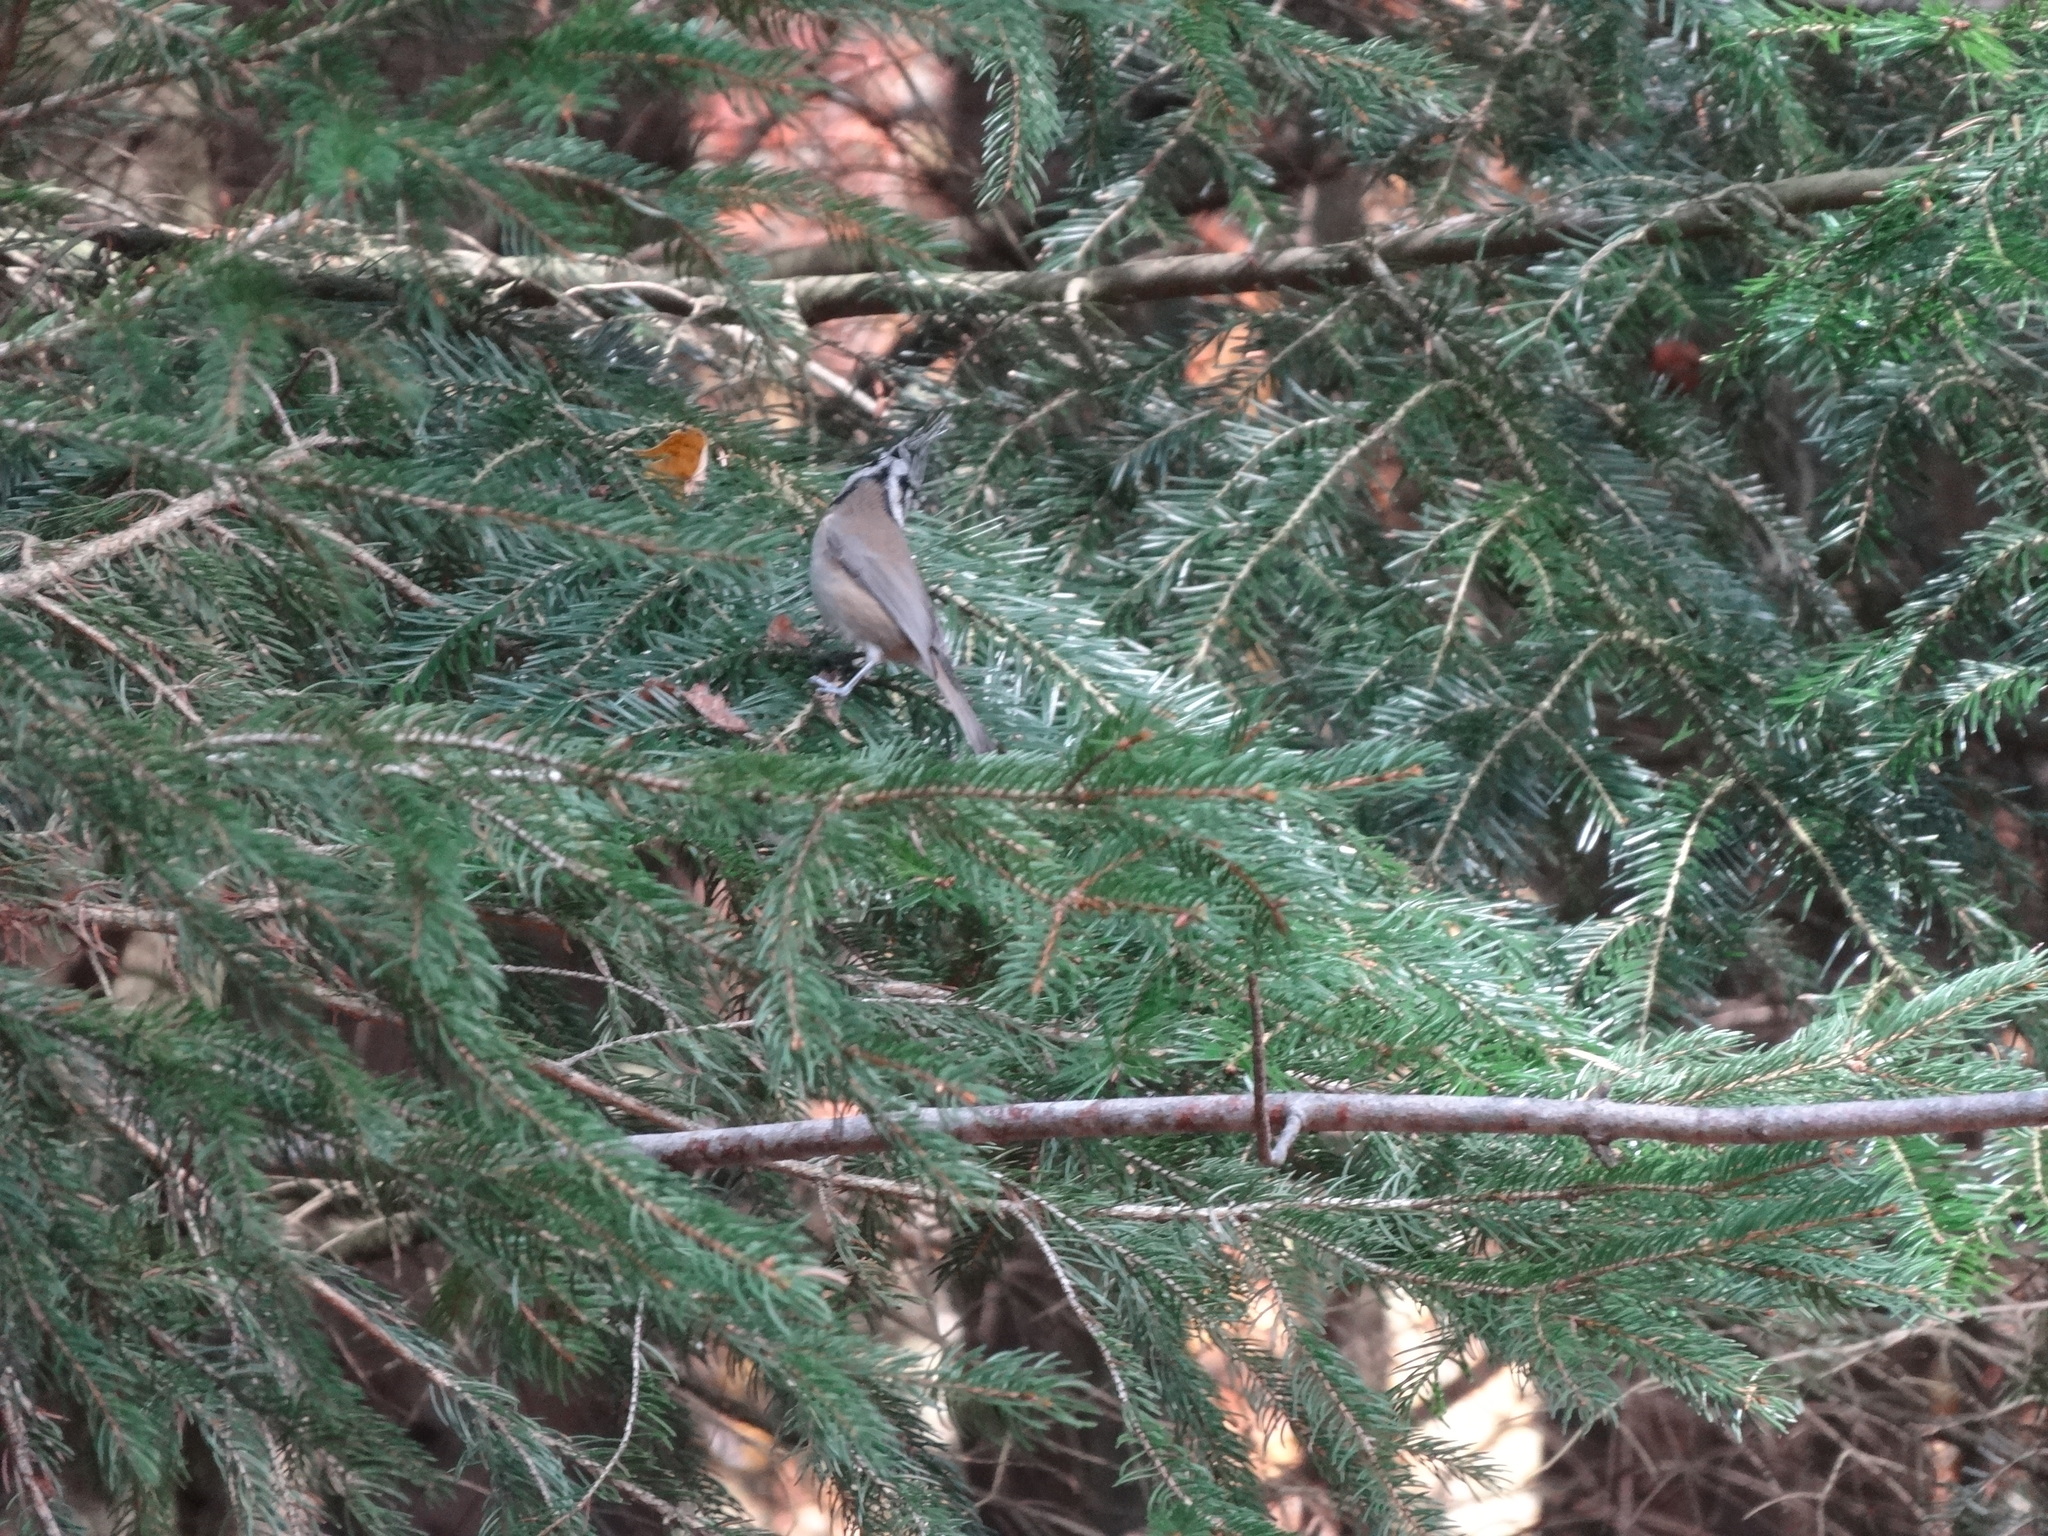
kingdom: Animalia
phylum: Chordata
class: Aves
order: Passeriformes
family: Paridae
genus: Lophophanes
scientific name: Lophophanes cristatus
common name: European crested tit
